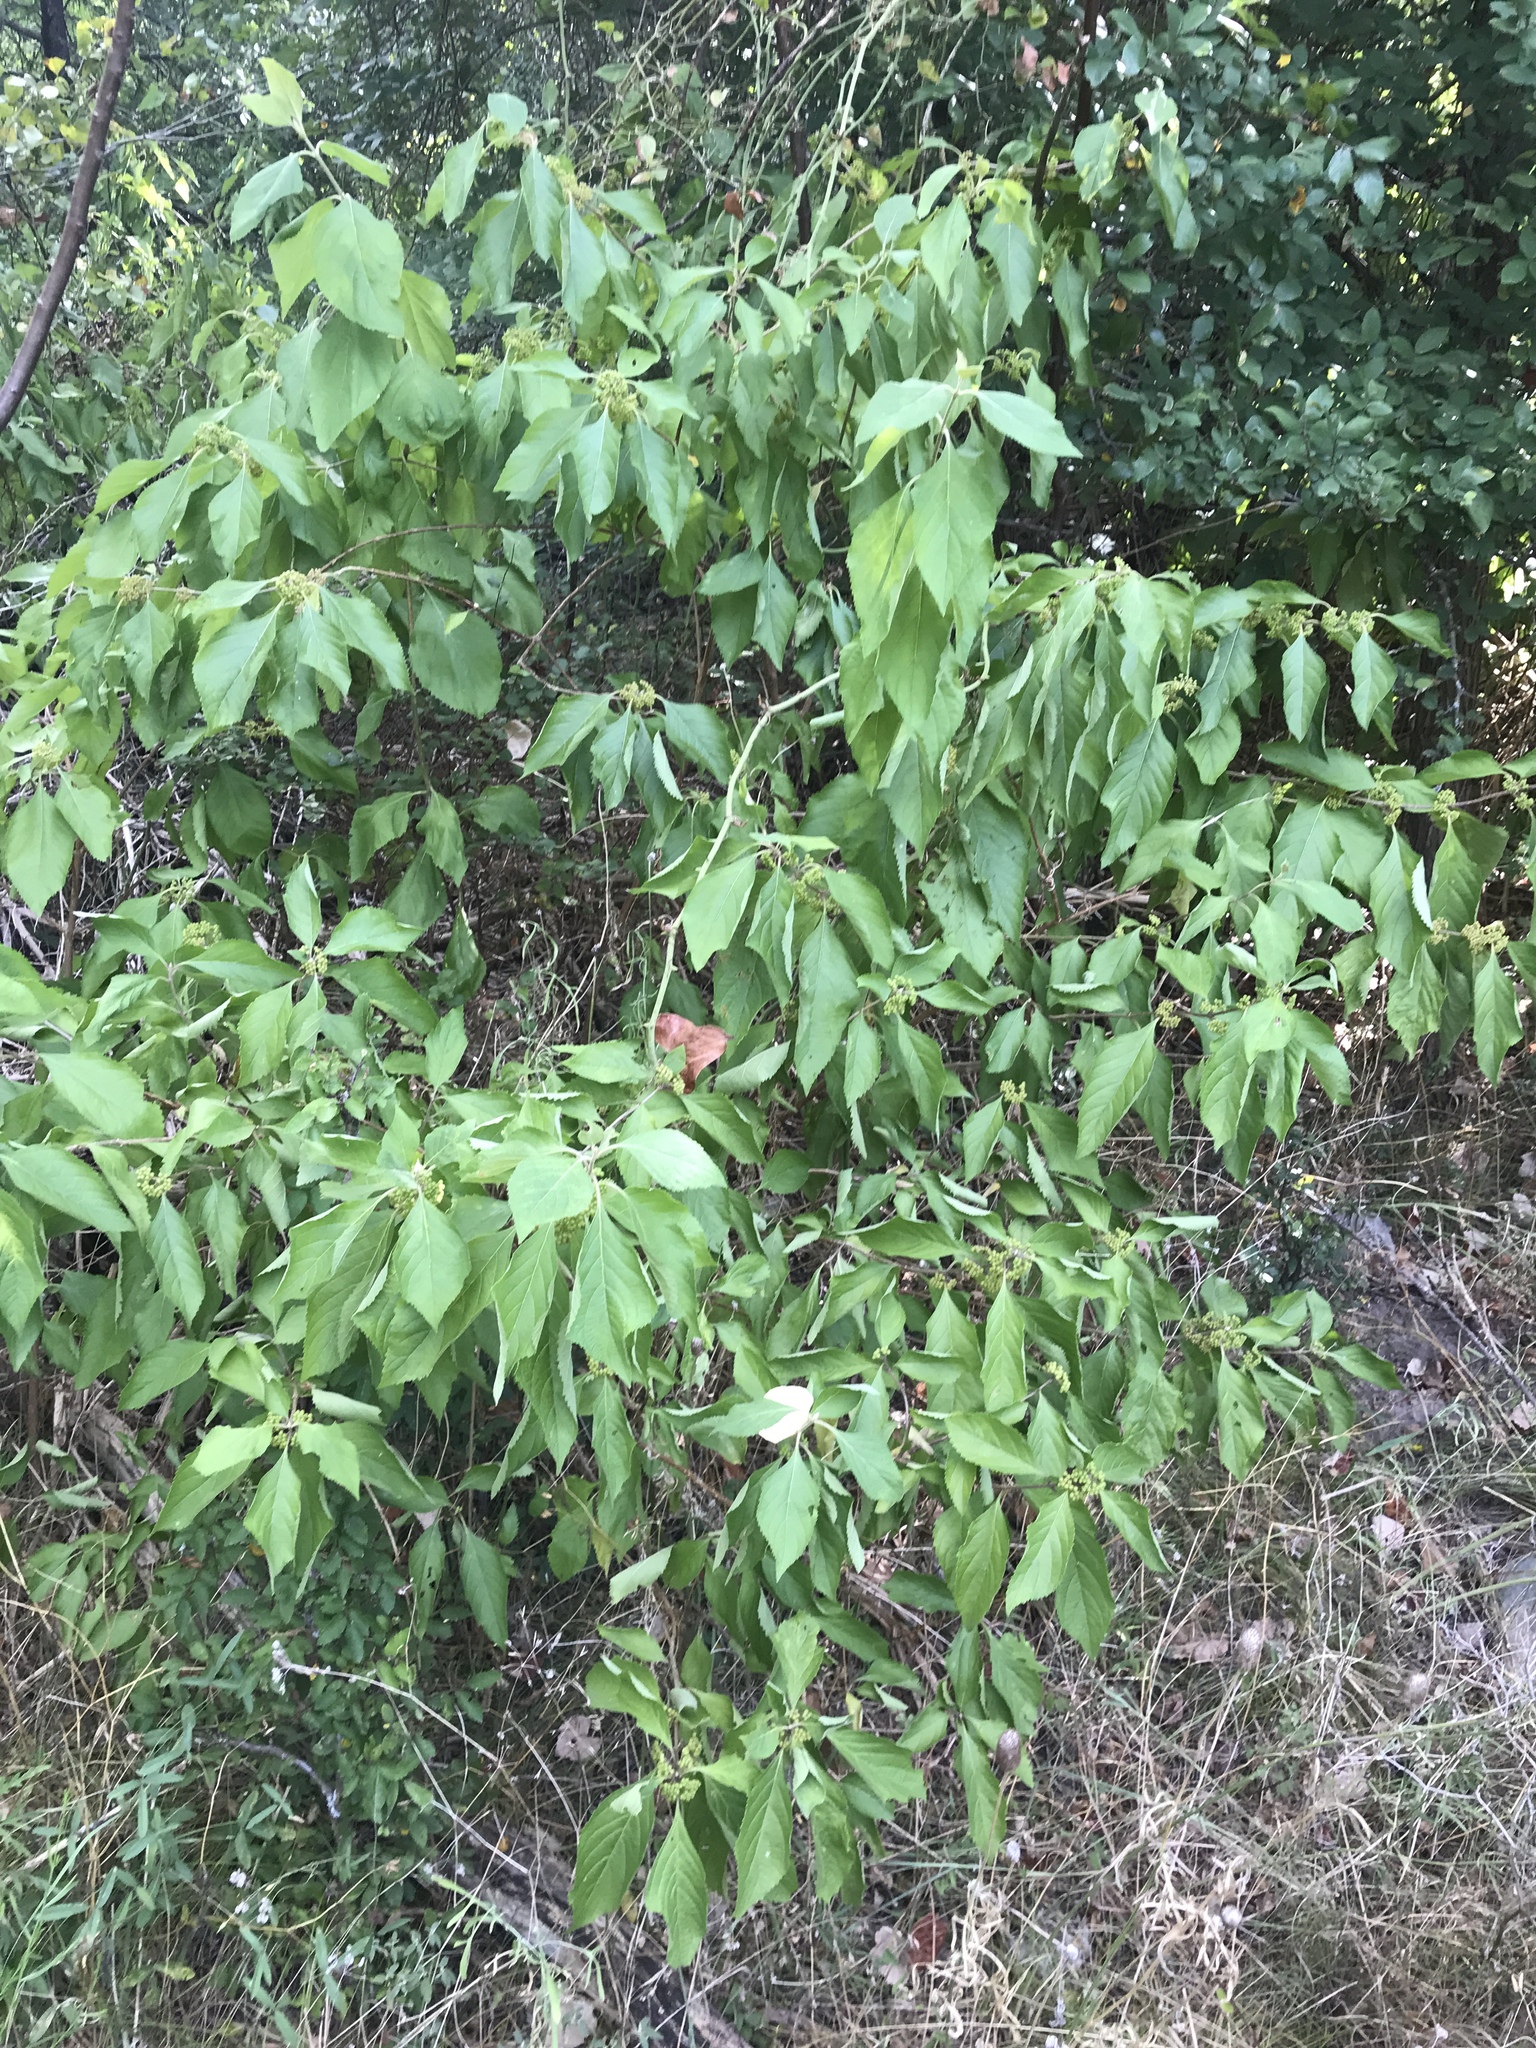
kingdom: Plantae
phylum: Tracheophyta
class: Magnoliopsida
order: Lamiales
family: Lamiaceae
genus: Callicarpa
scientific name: Callicarpa americana
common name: American beautyberry
